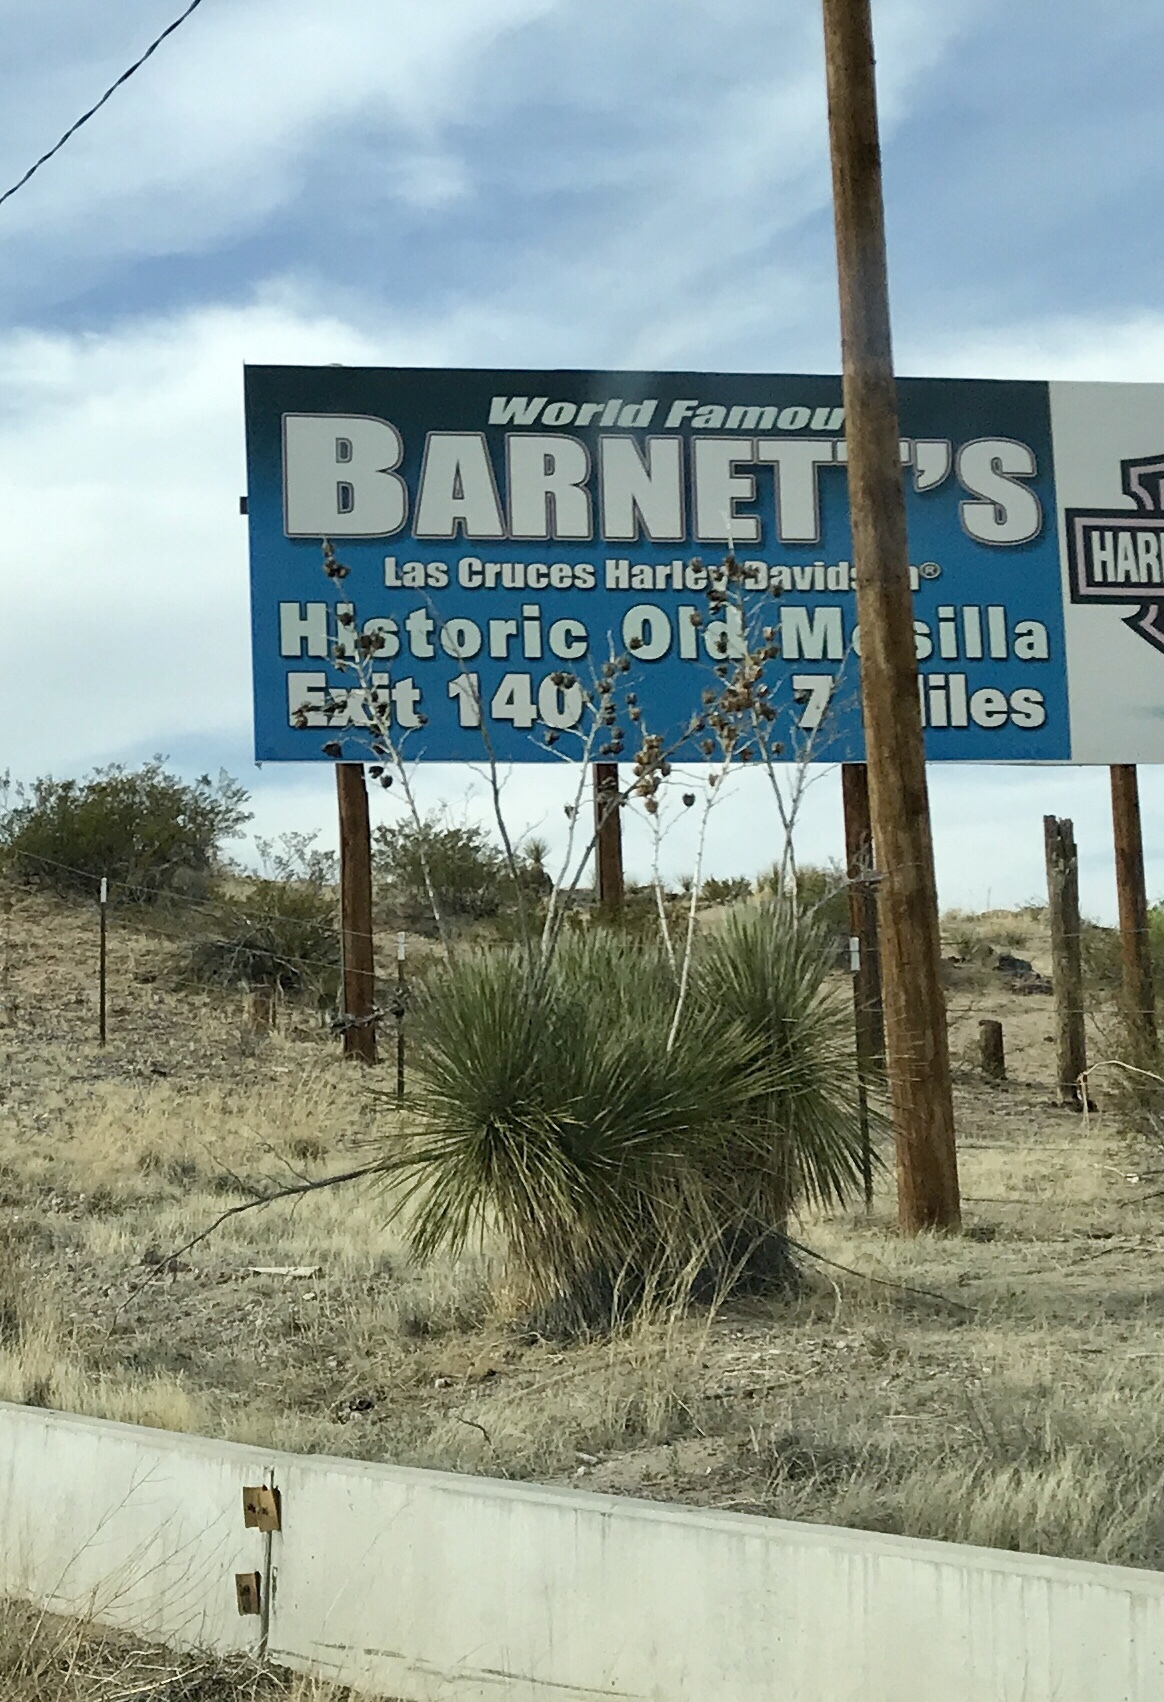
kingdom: Plantae
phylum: Tracheophyta
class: Liliopsida
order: Asparagales
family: Asparagaceae
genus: Yucca
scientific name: Yucca elata
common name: Palmella
